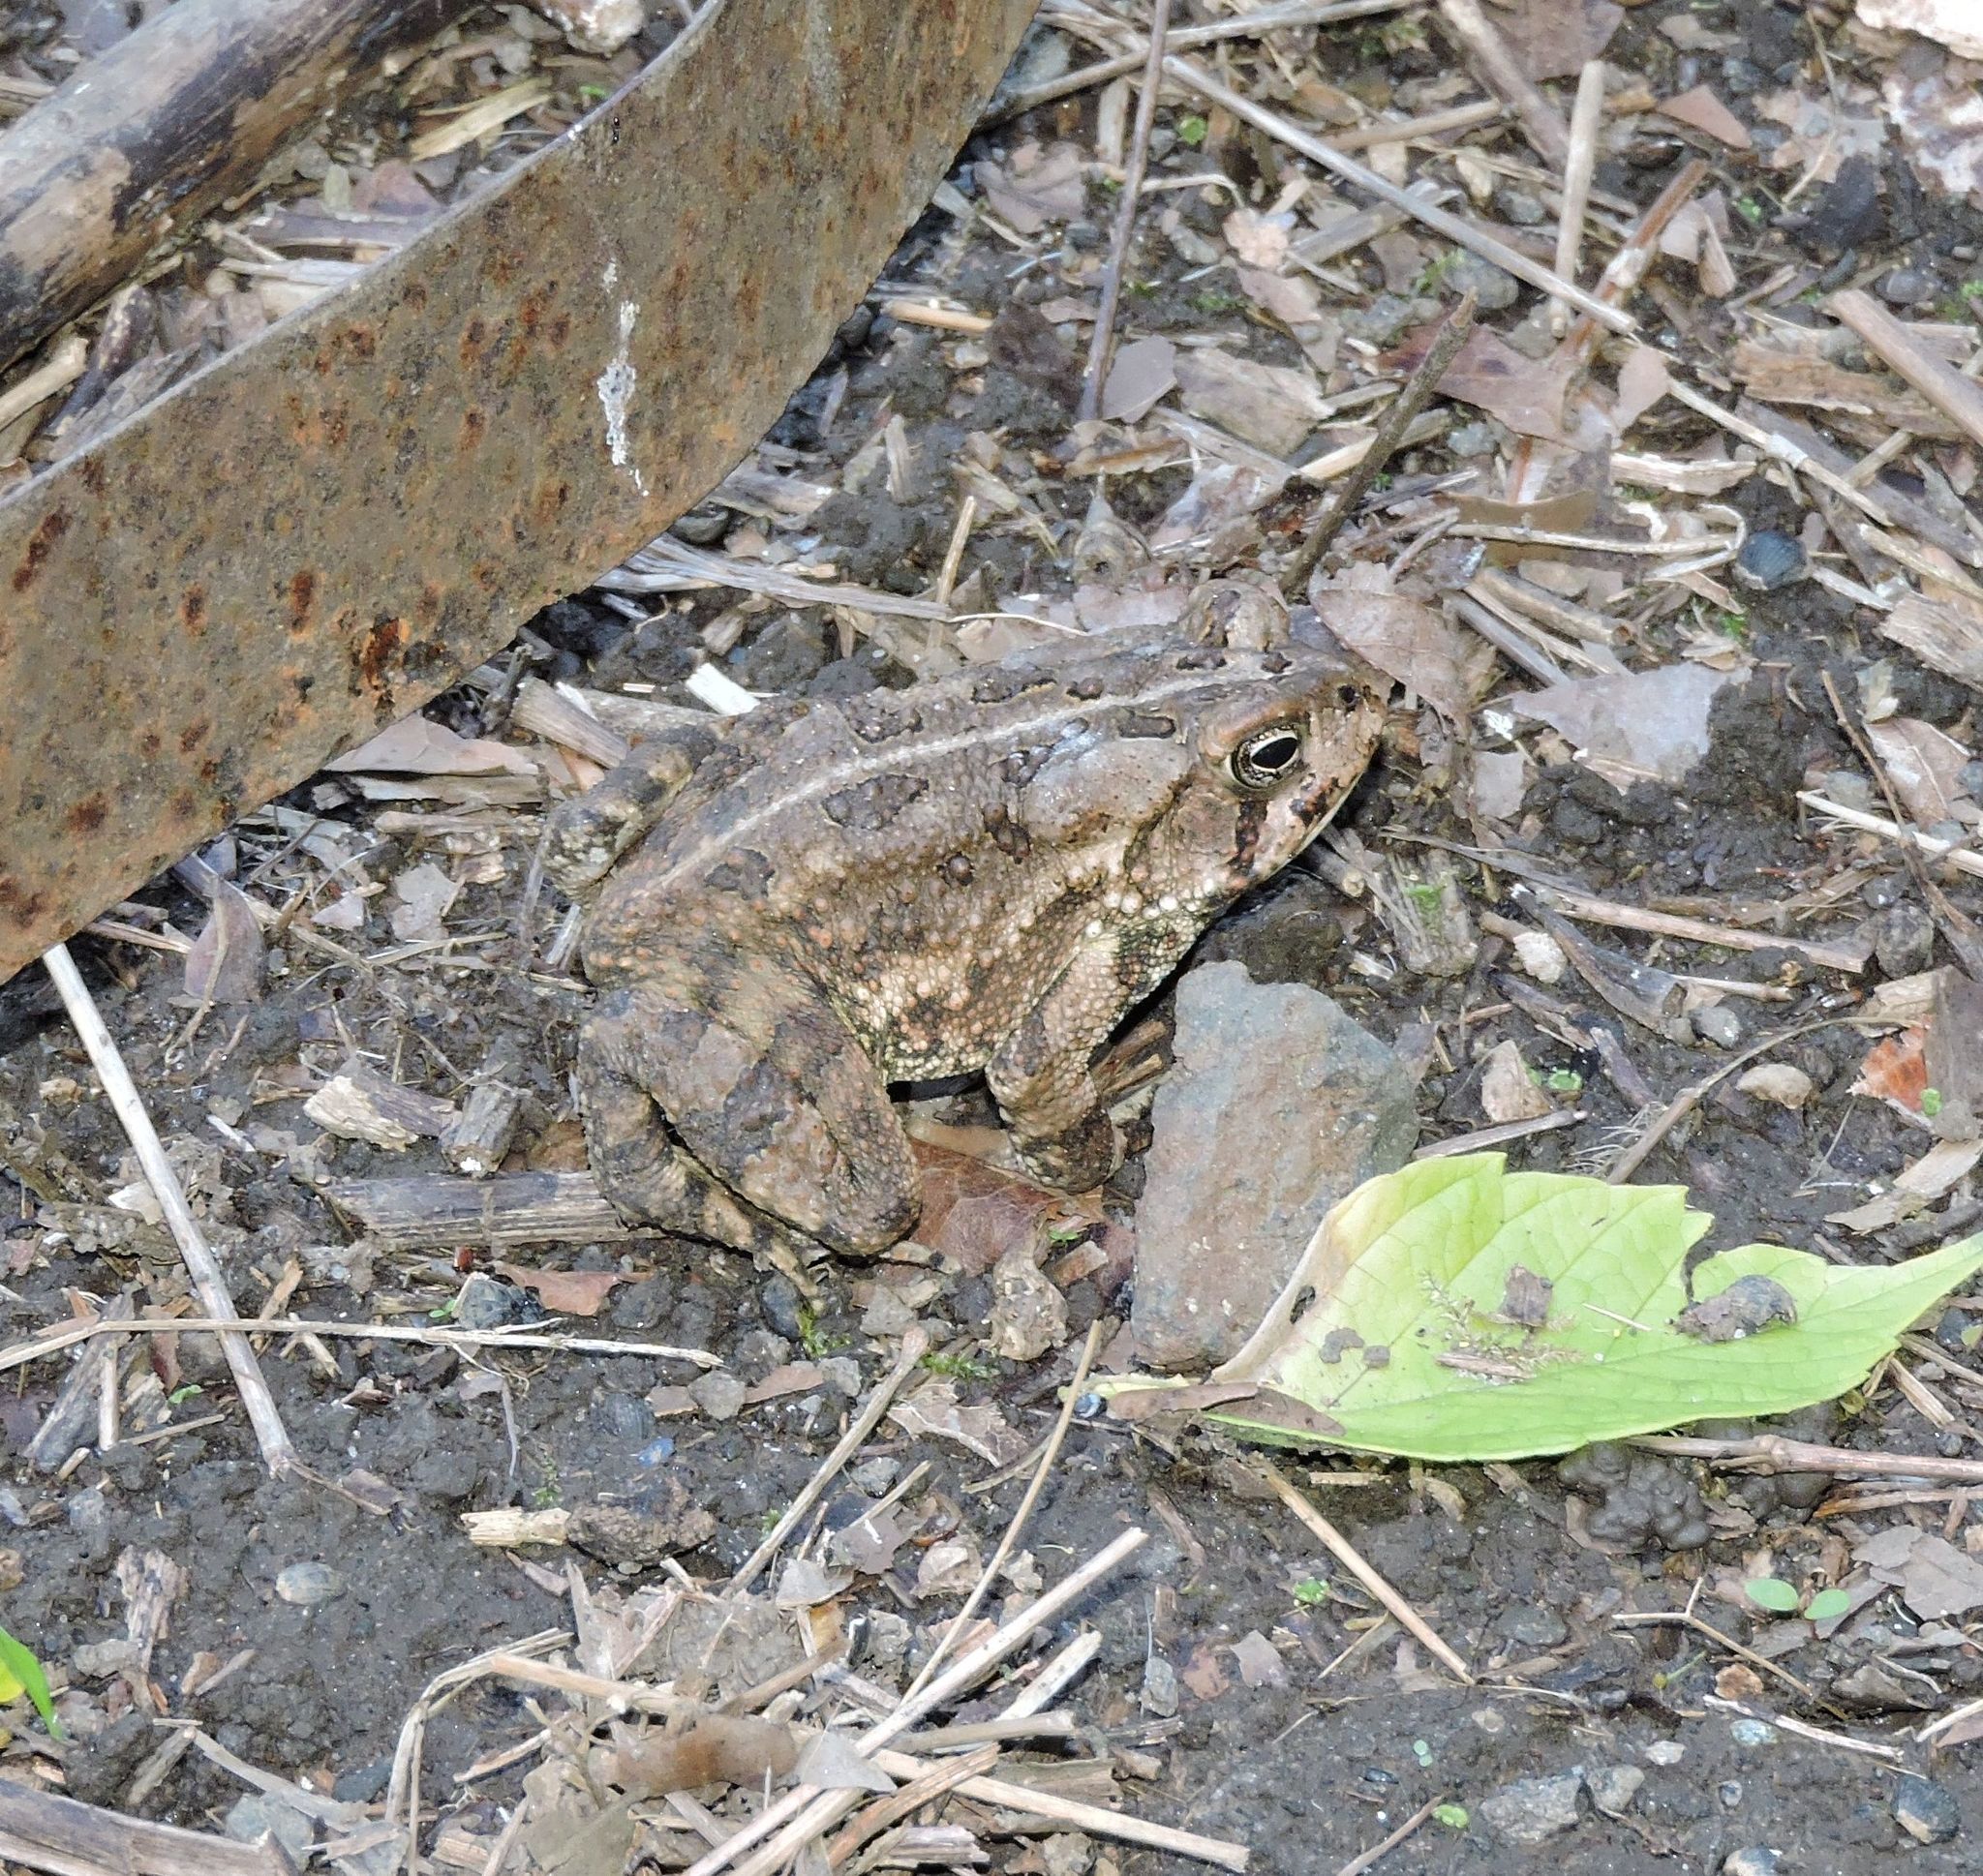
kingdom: Animalia
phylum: Chordata
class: Amphibia
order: Anura
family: Bufonidae
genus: Anaxyrus
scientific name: Anaxyrus fowleri
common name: Fowler's toad
